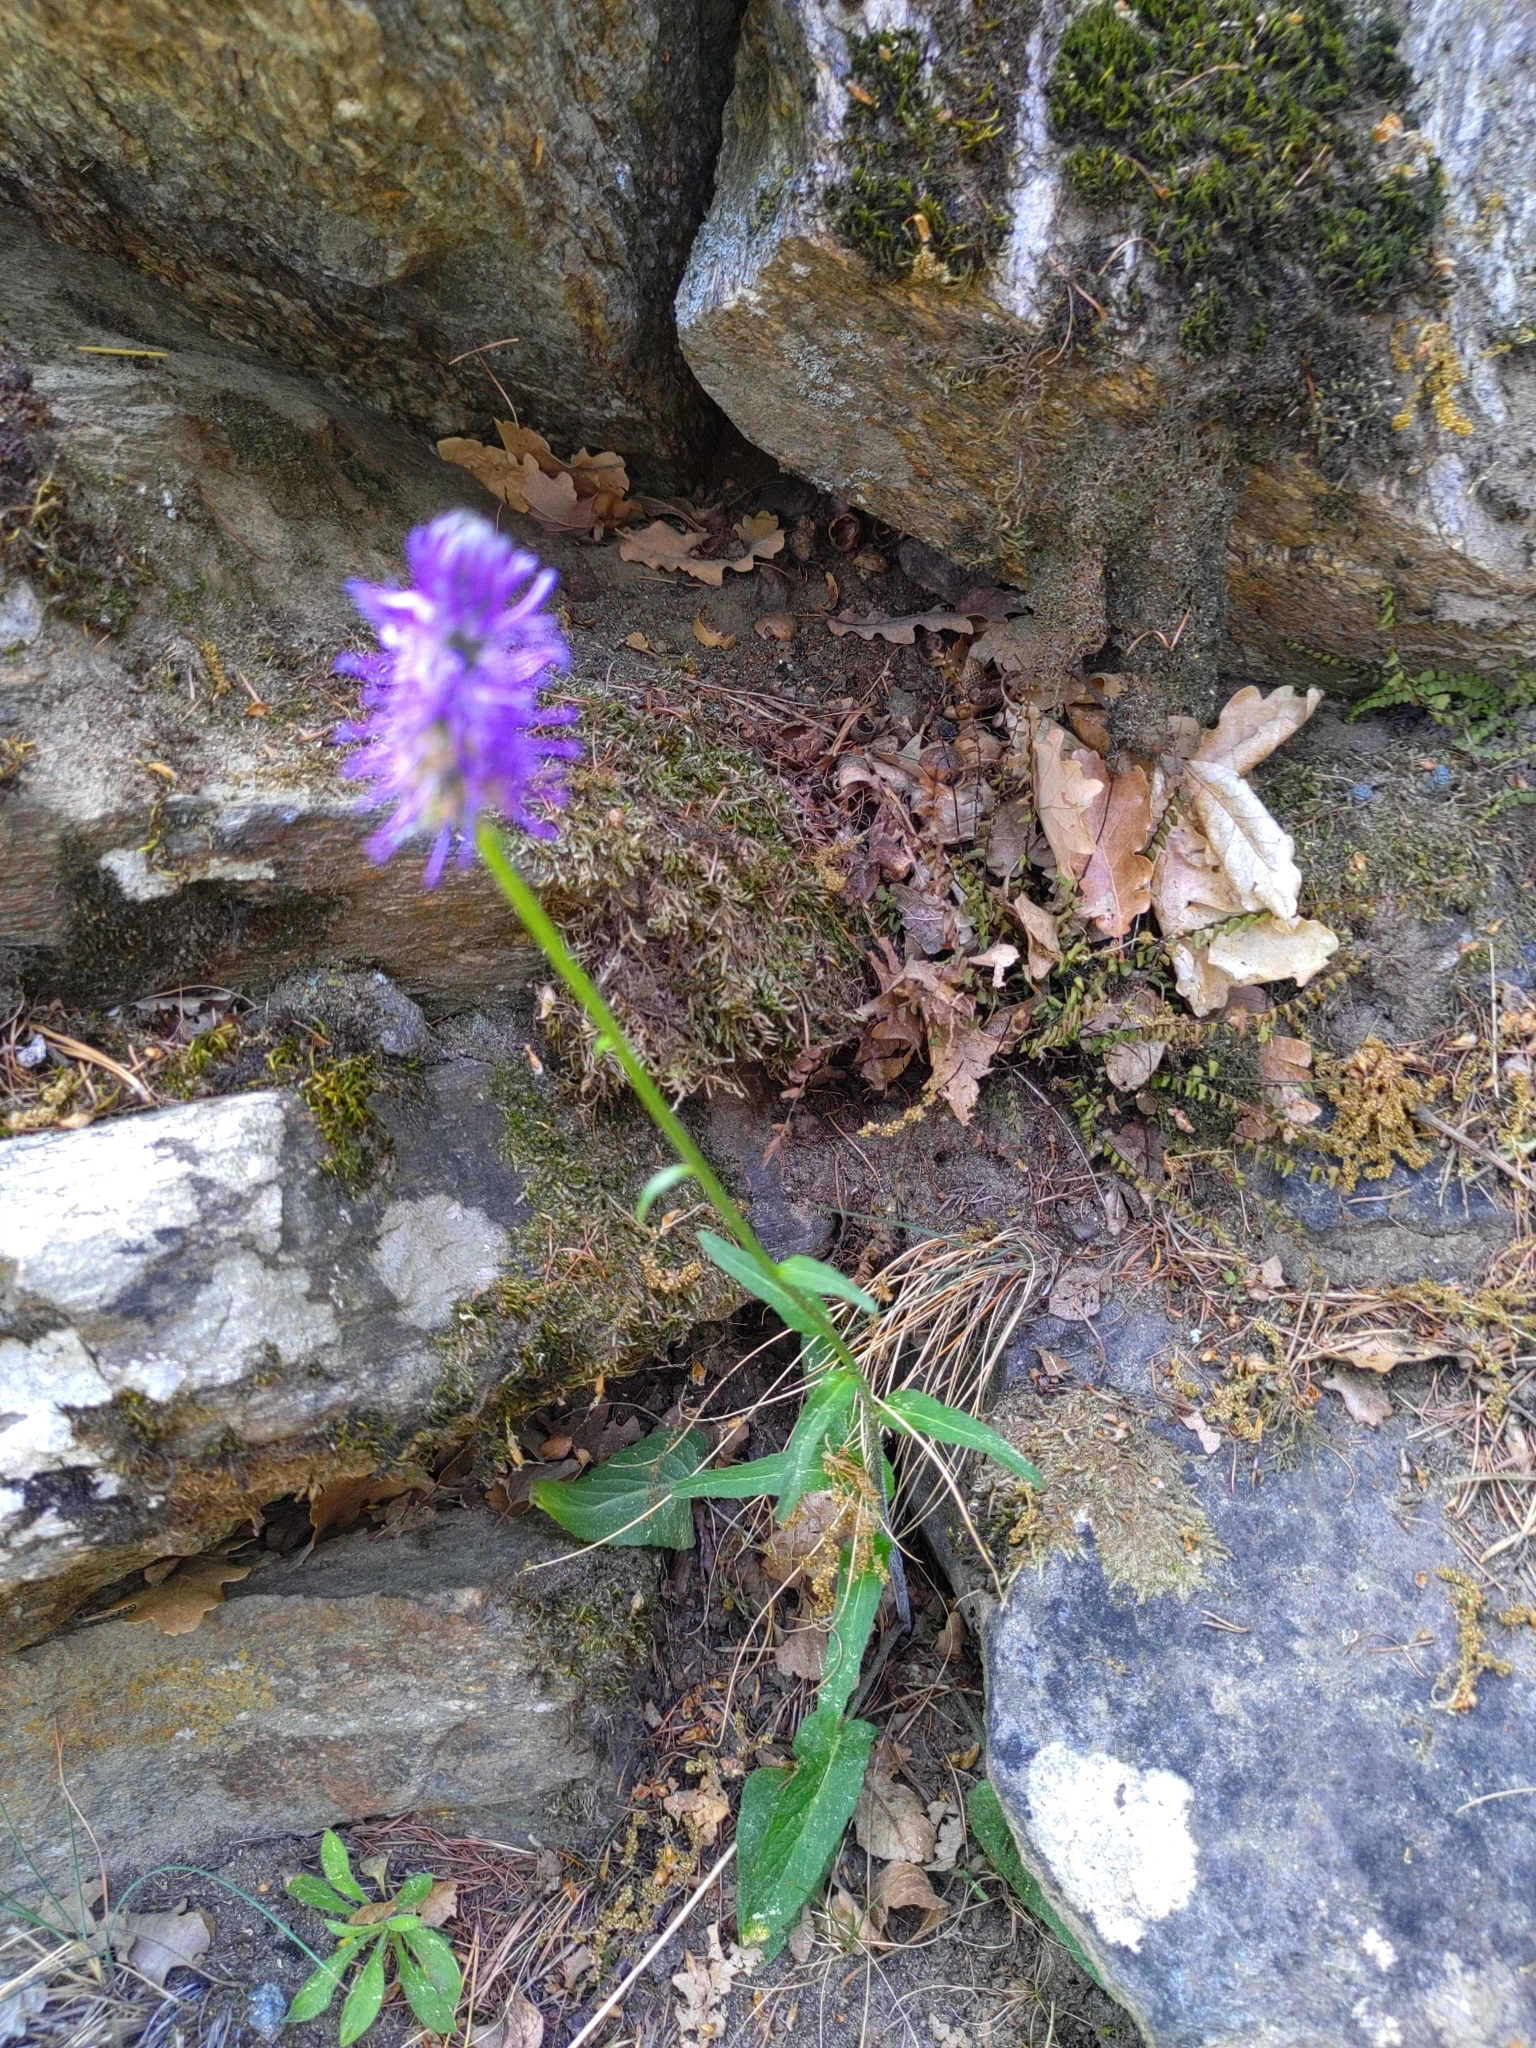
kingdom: Plantae
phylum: Tracheophyta
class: Magnoliopsida
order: Asterales
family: Campanulaceae
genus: Phyteuma
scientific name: Phyteuma betonicifolium
